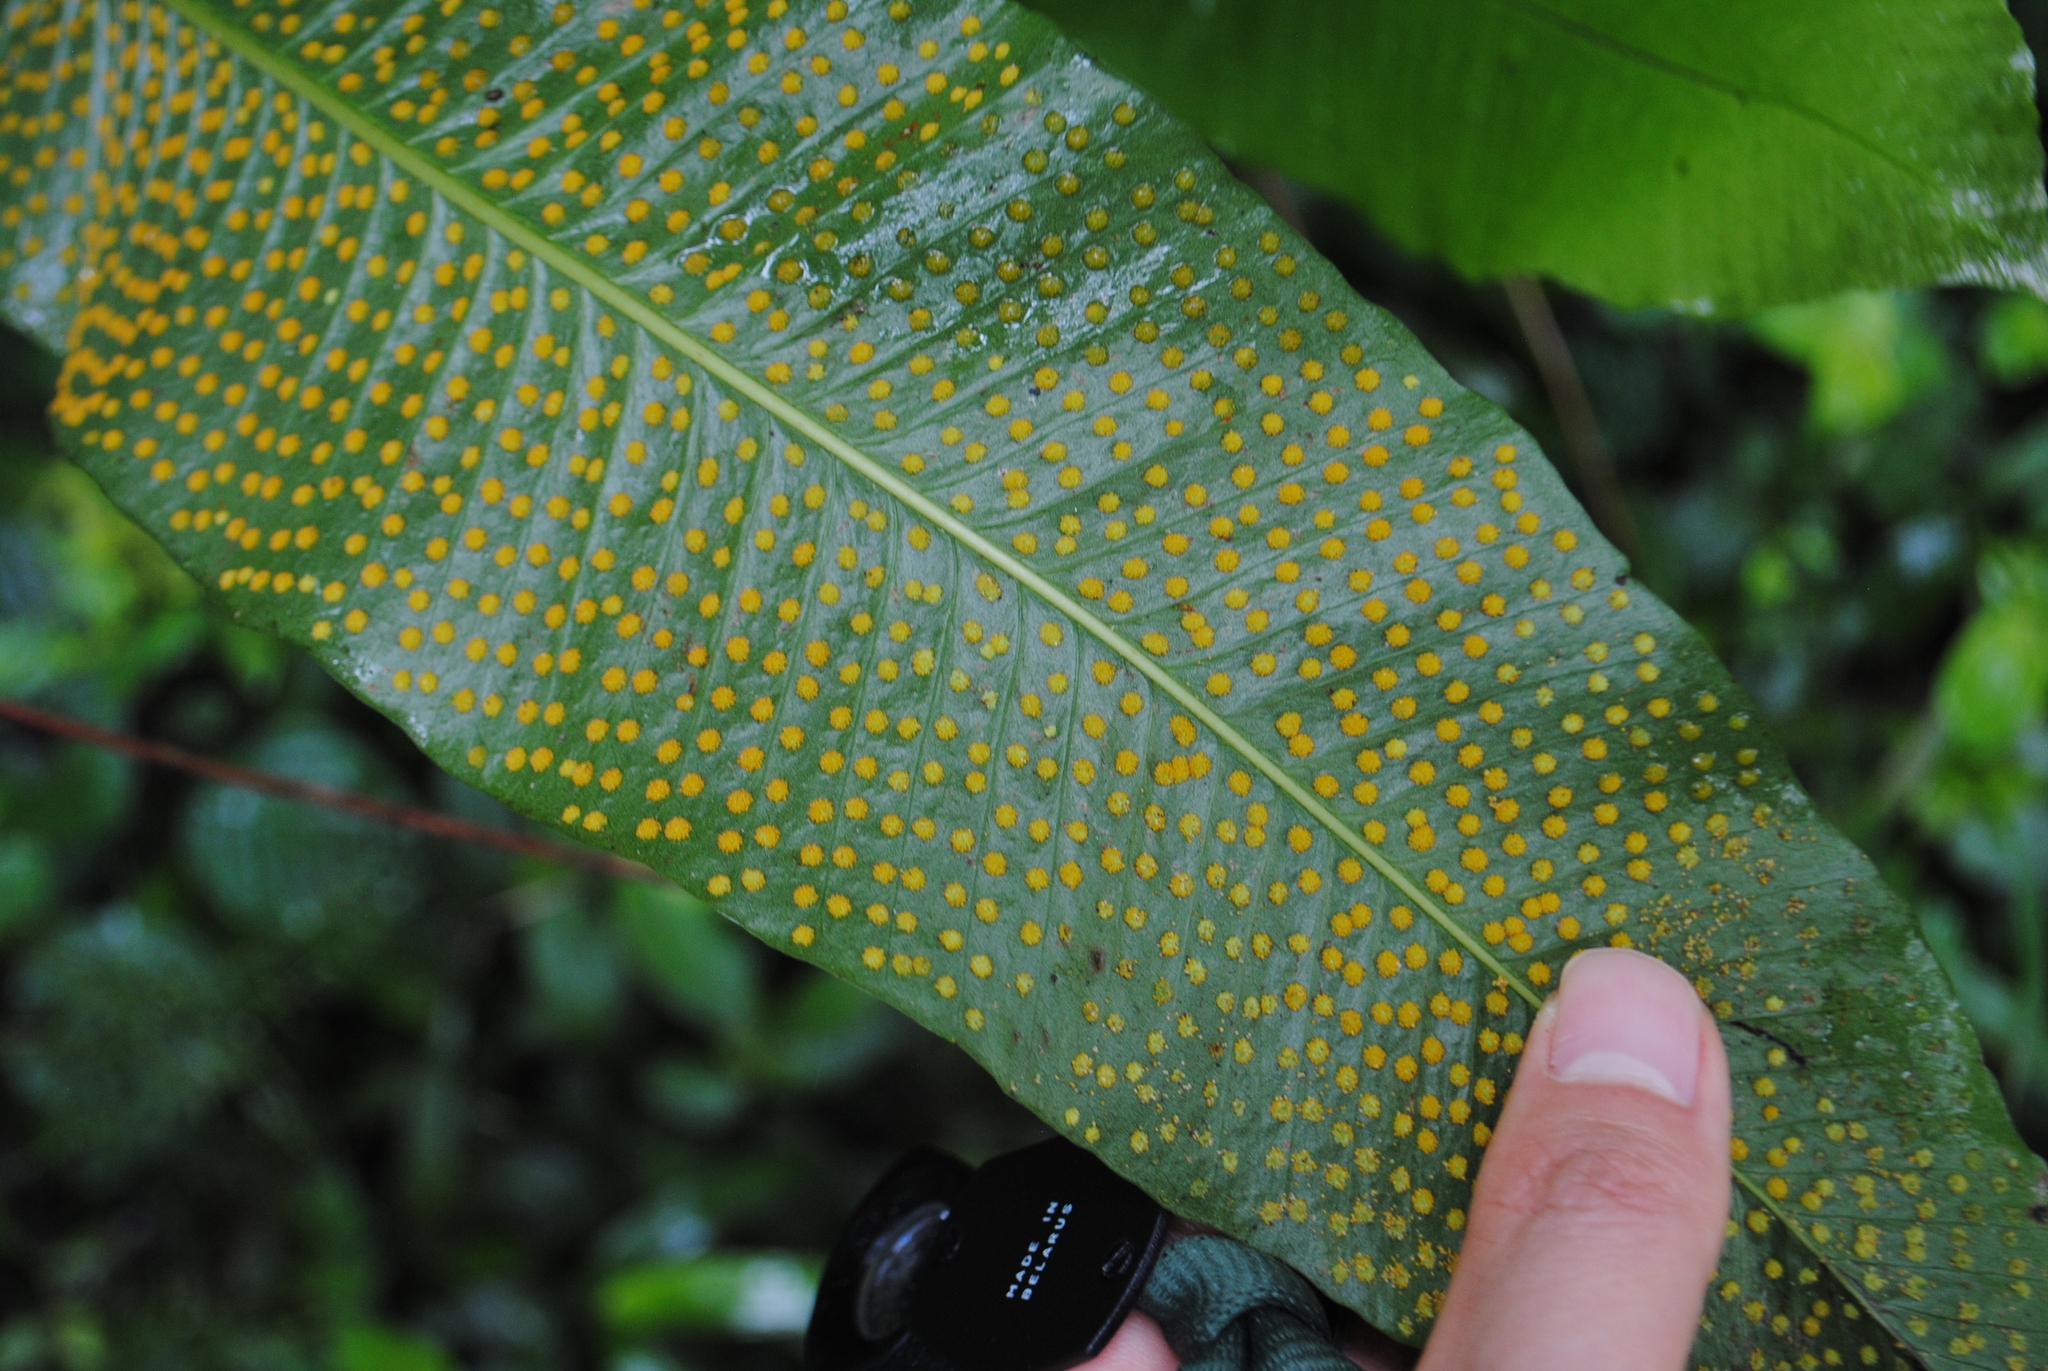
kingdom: Plantae
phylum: Tracheophyta
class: Polypodiopsida
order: Polypodiales
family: Polypodiaceae
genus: Campyloneurum
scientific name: Campyloneurum phyllitidis
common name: Cow-tongue fern
